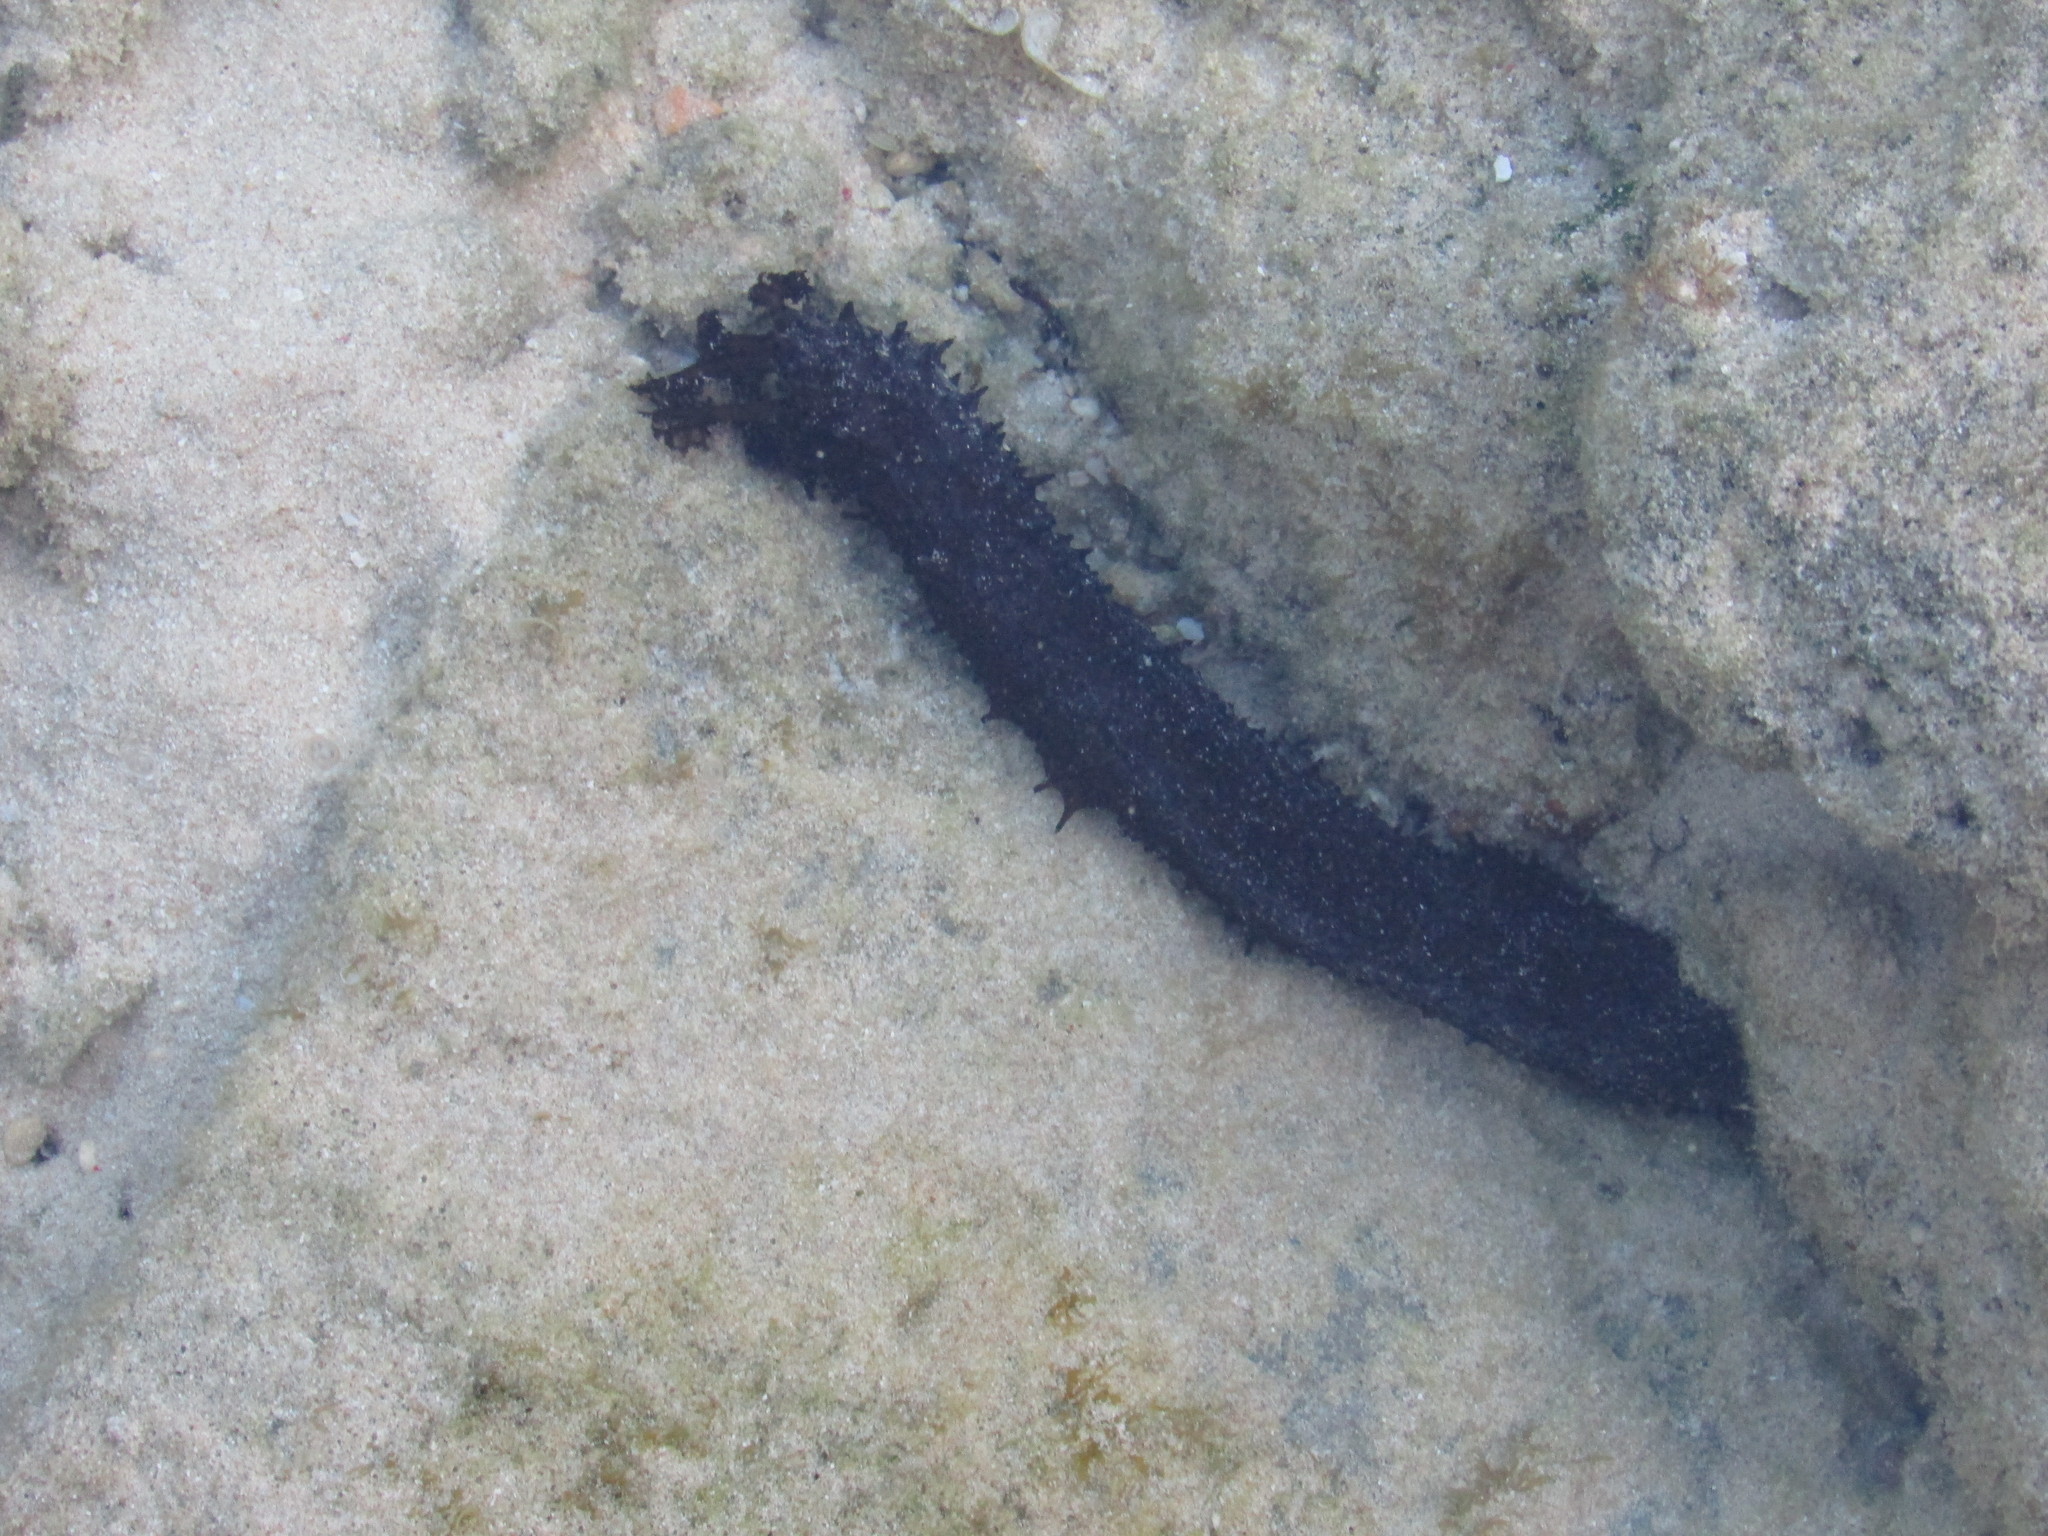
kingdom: Animalia
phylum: Echinodermata
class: Holothuroidea
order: Holothuriida
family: Holothuriidae
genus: Holothuria
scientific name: Holothuria leucospilota
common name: White thread fish
